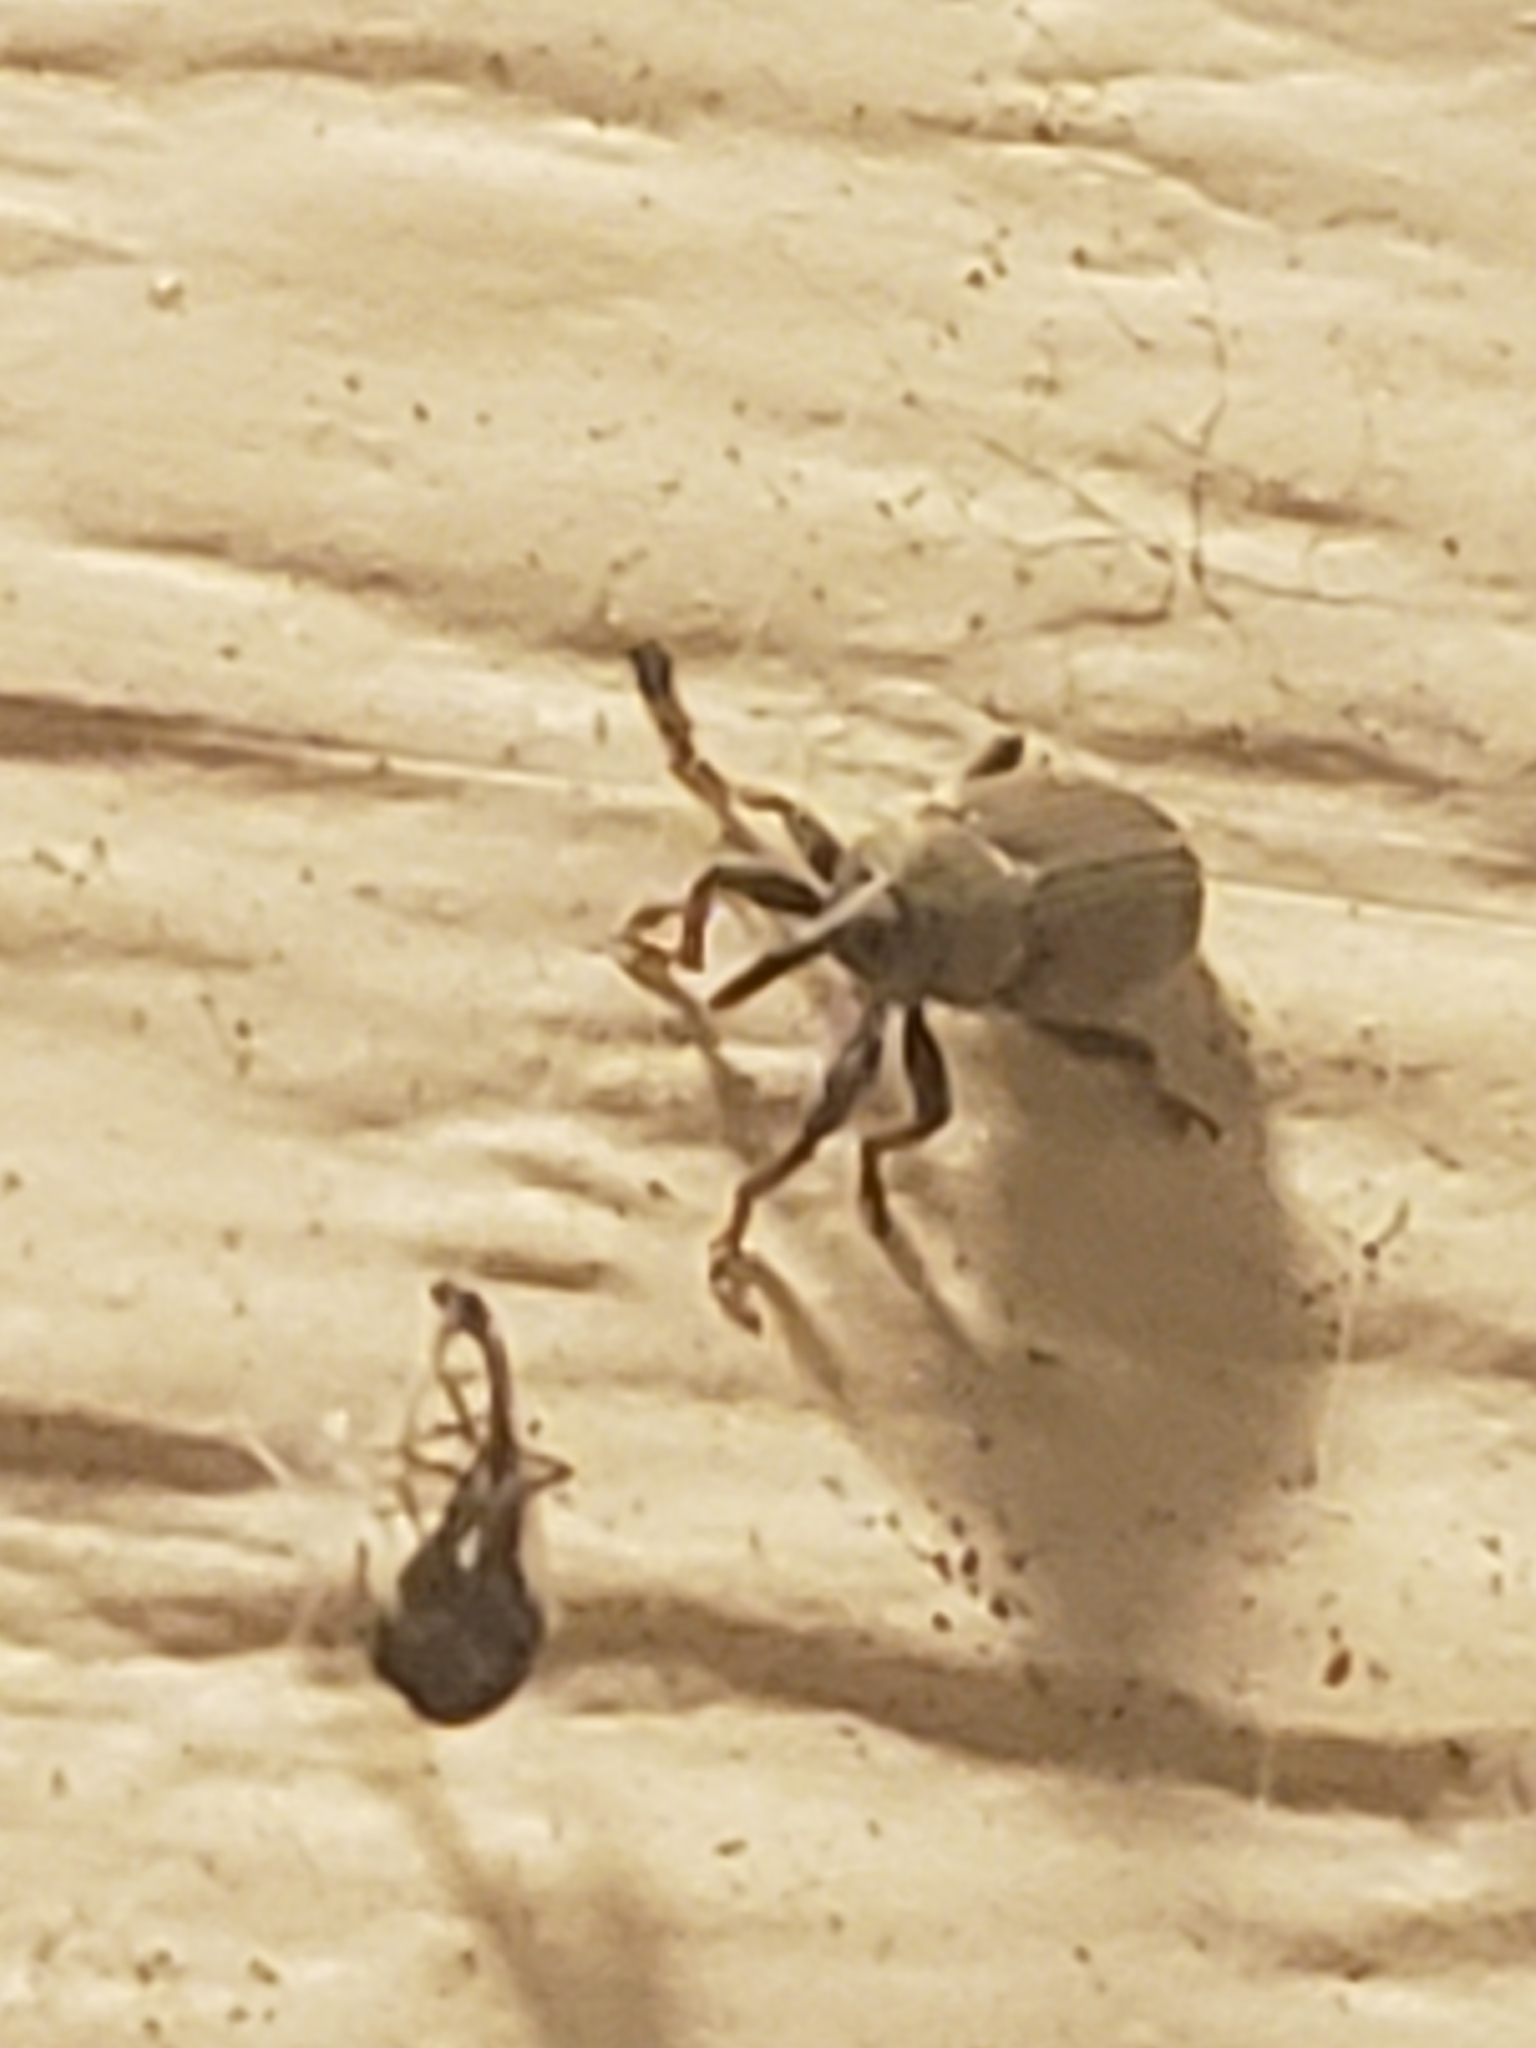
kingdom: Animalia
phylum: Arthropoda
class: Insecta
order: Coleoptera
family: Curculionidae
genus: Tychius
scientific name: Tychius stephensi
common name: Red clover seed weevil
